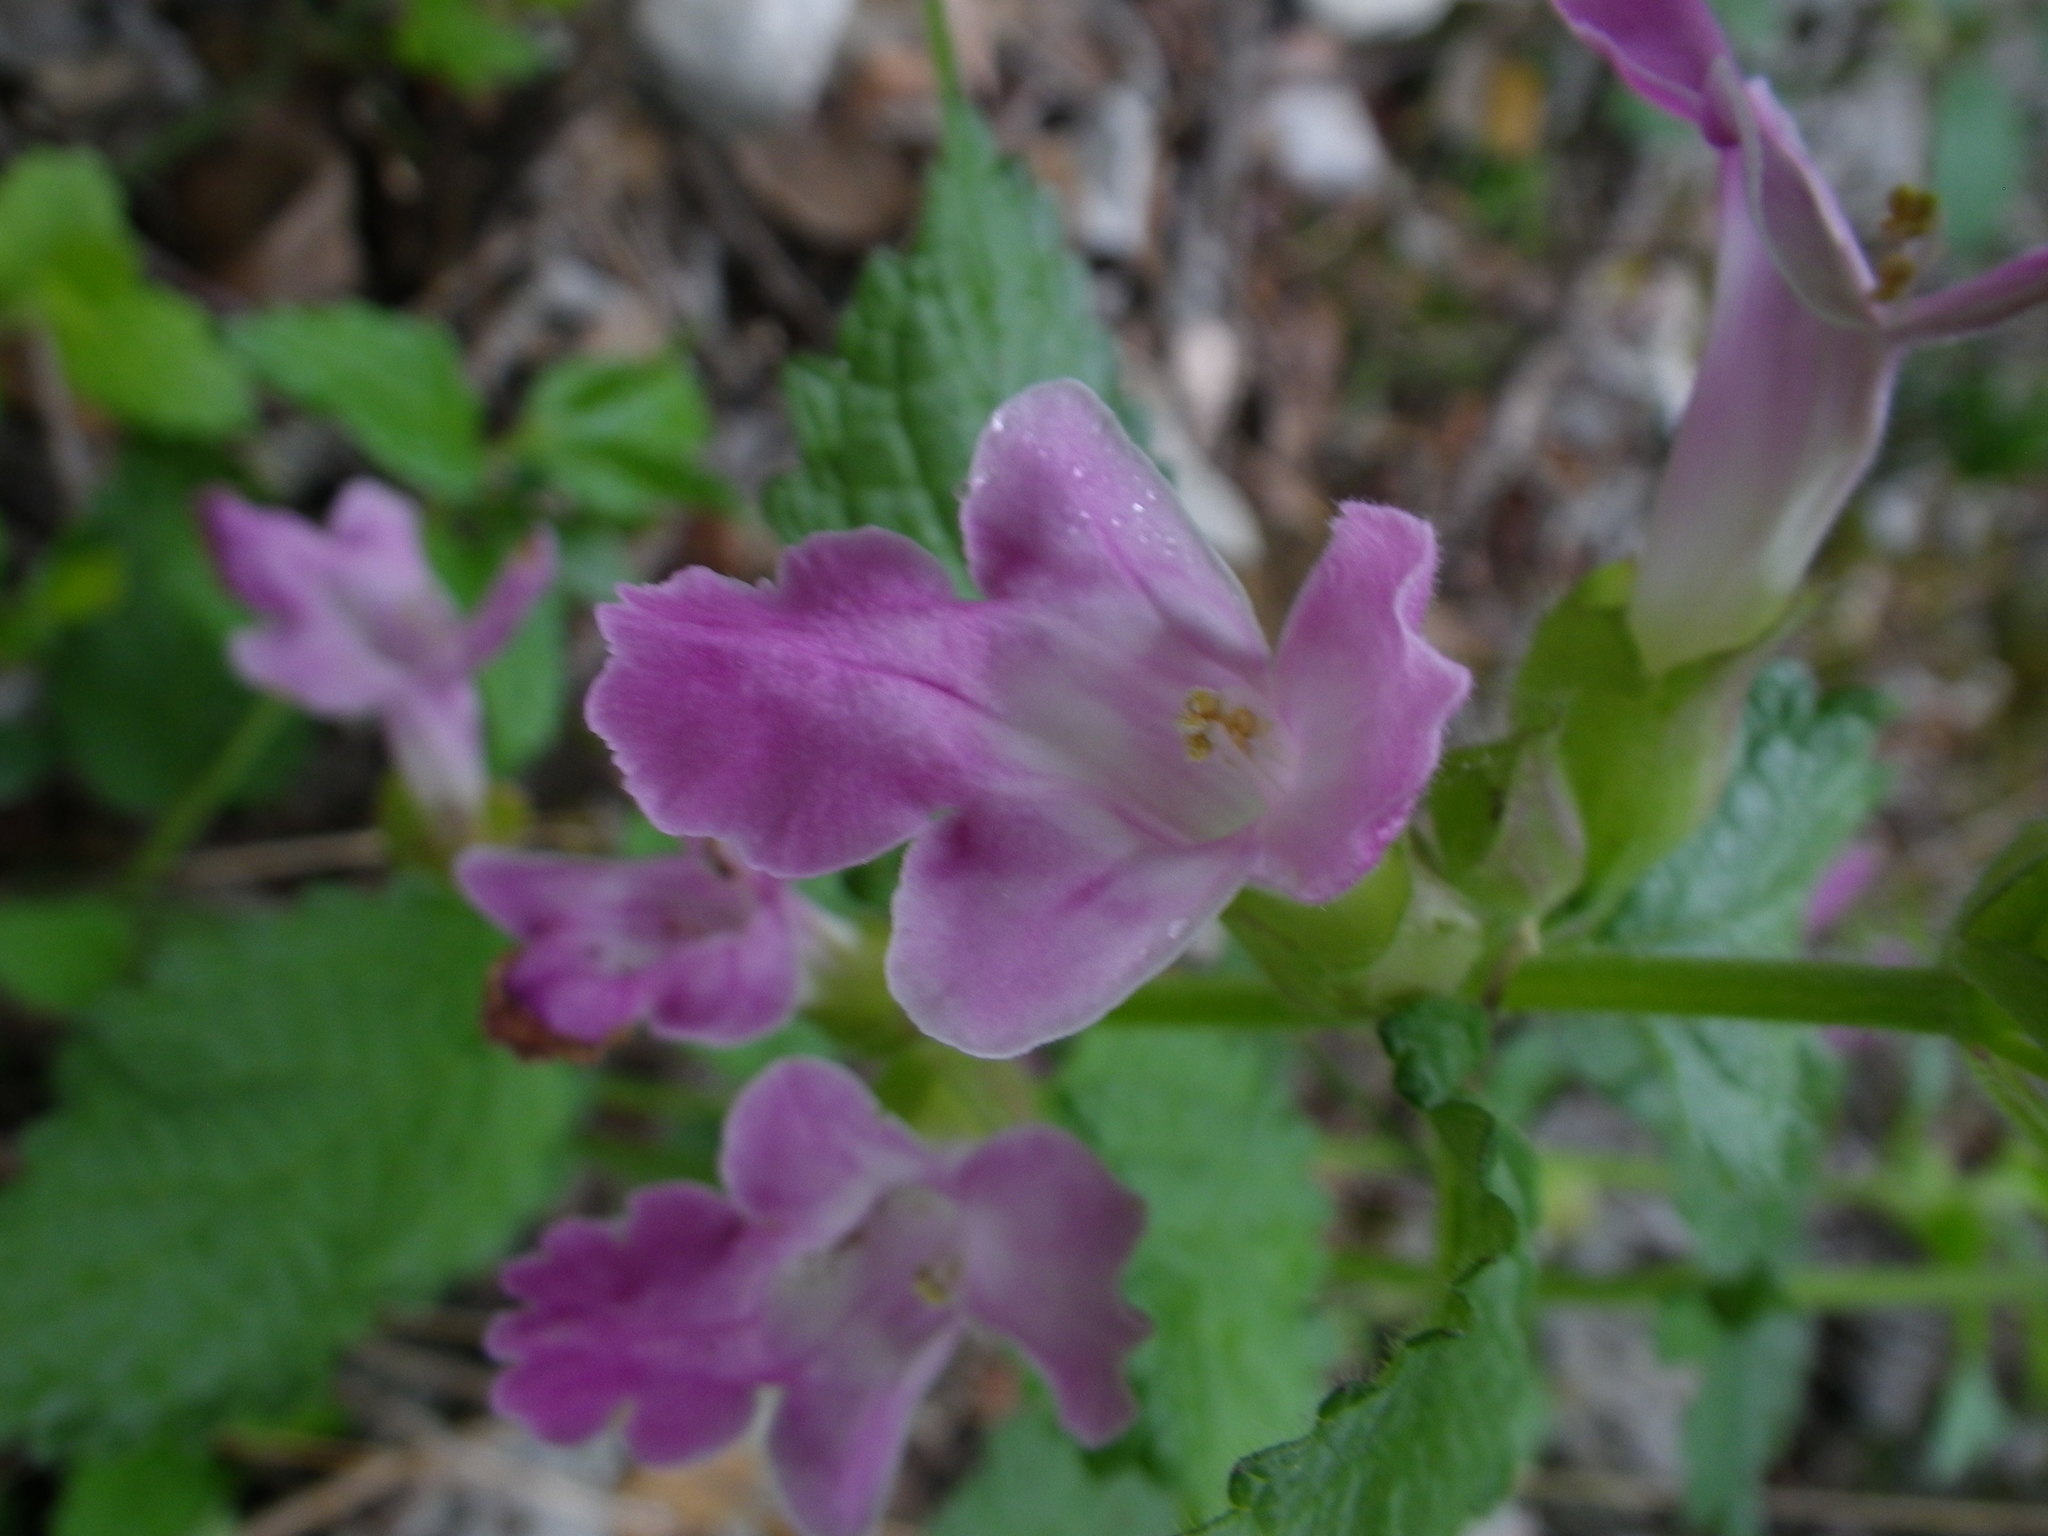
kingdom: Plantae
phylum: Tracheophyta
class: Magnoliopsida
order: Lamiales
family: Lamiaceae
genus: Melittis
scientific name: Melittis melissophyllum
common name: Bastard balm
